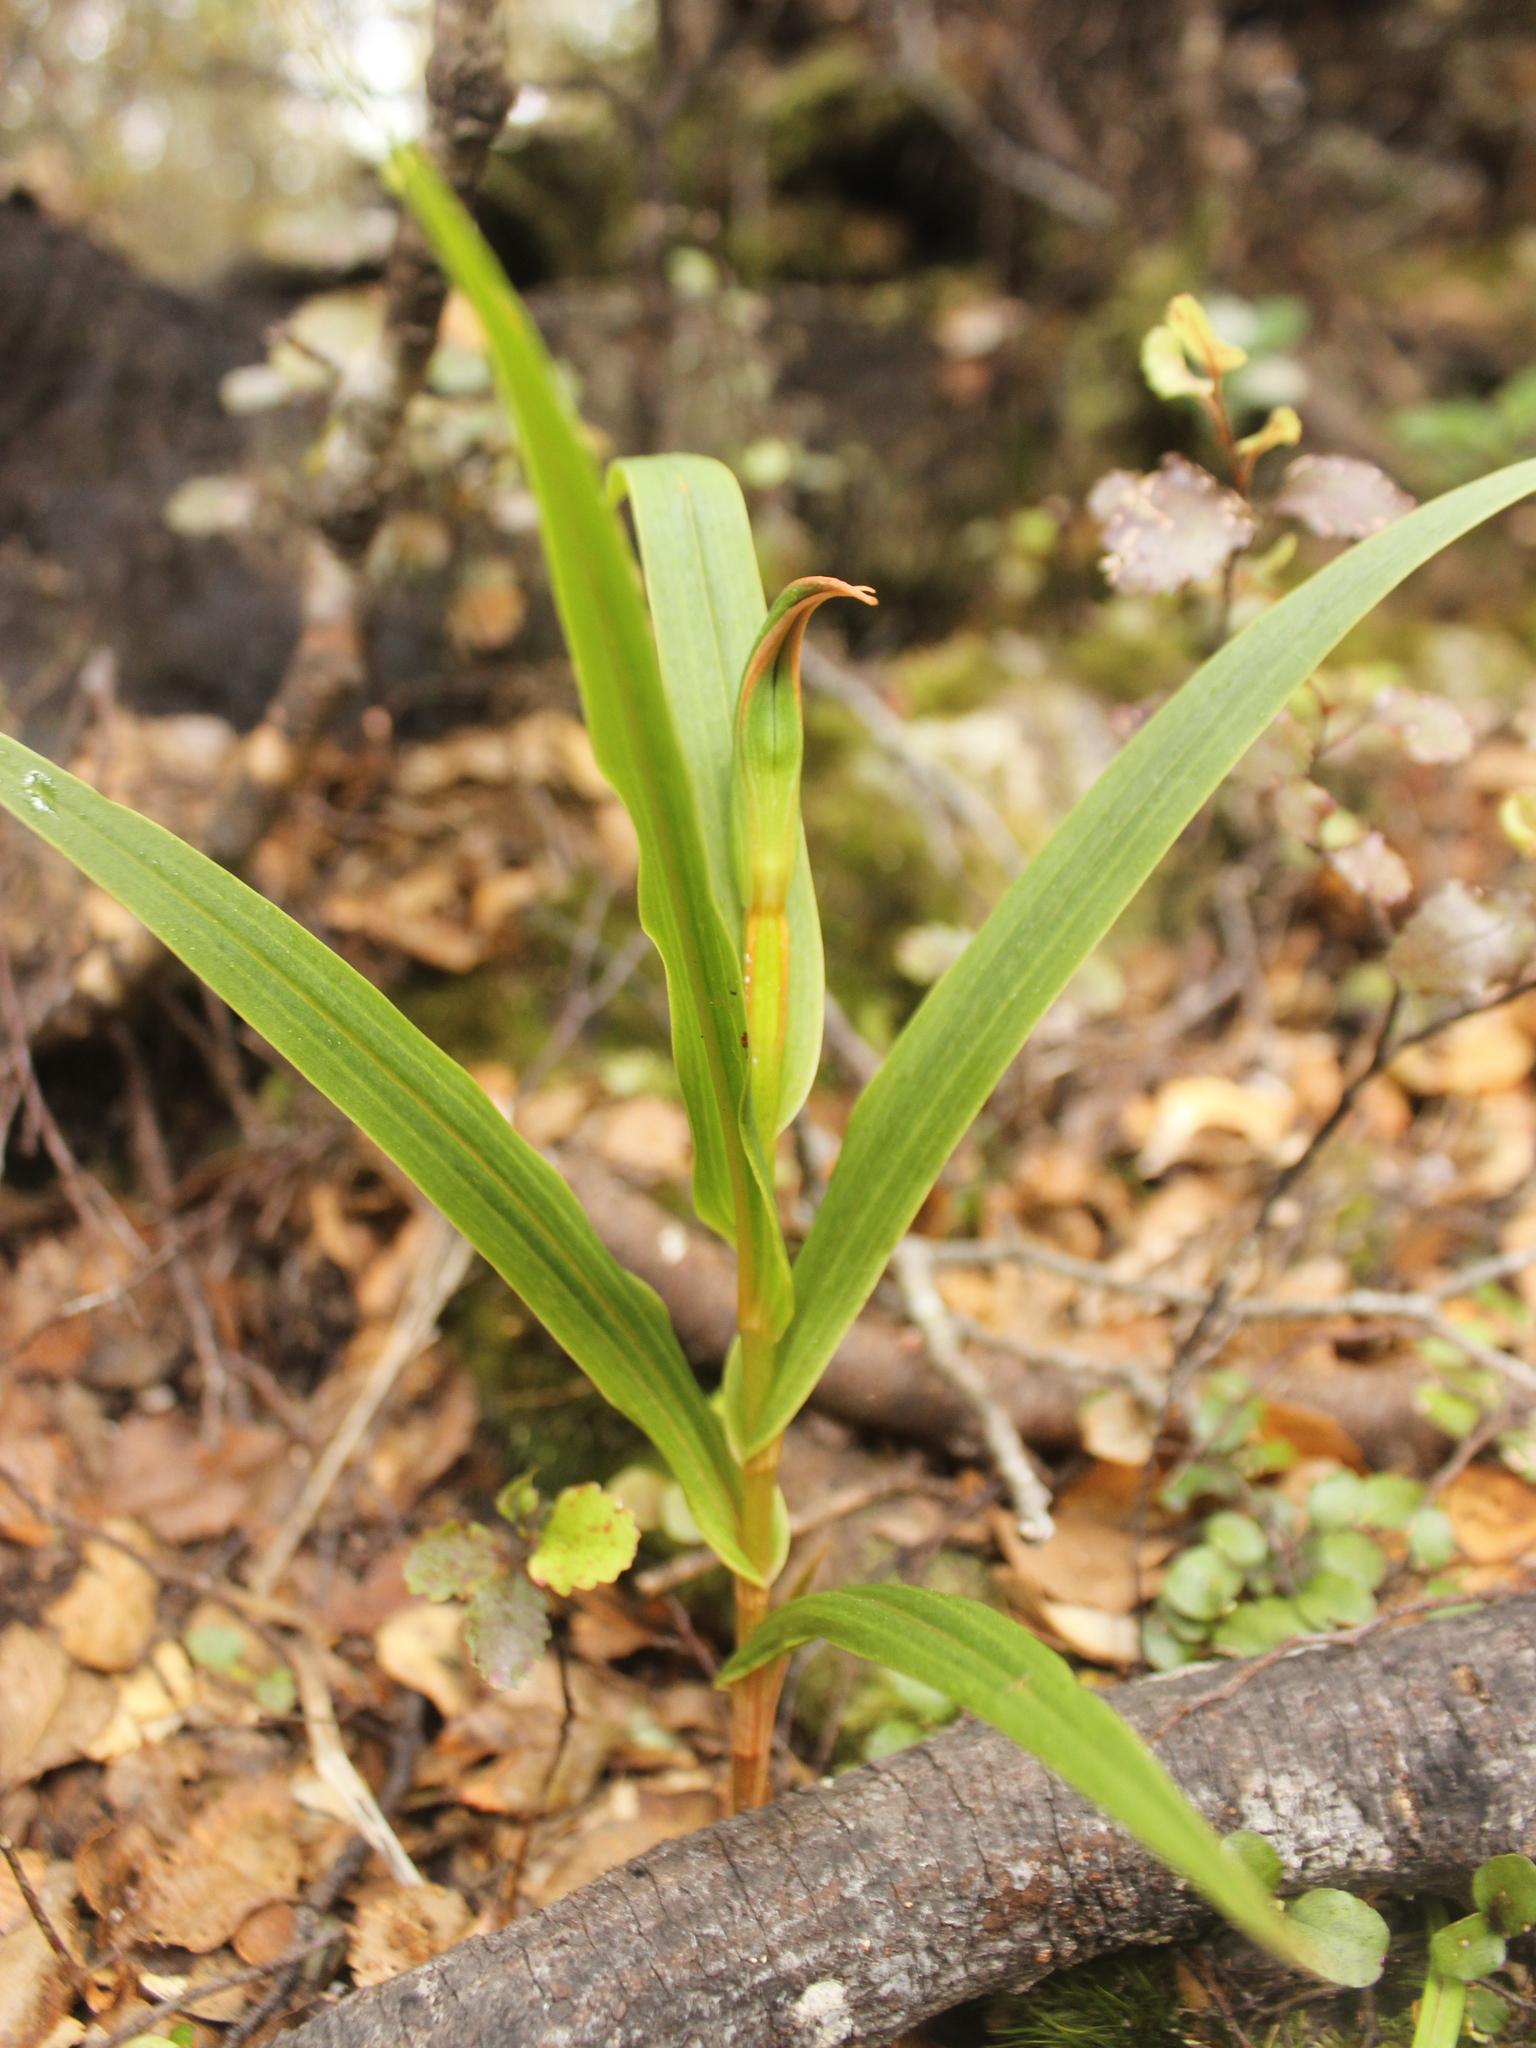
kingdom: Plantae
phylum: Tracheophyta
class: Liliopsida
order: Asparagales
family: Orchidaceae
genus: Pterostylis
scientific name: Pterostylis cardiostigma
